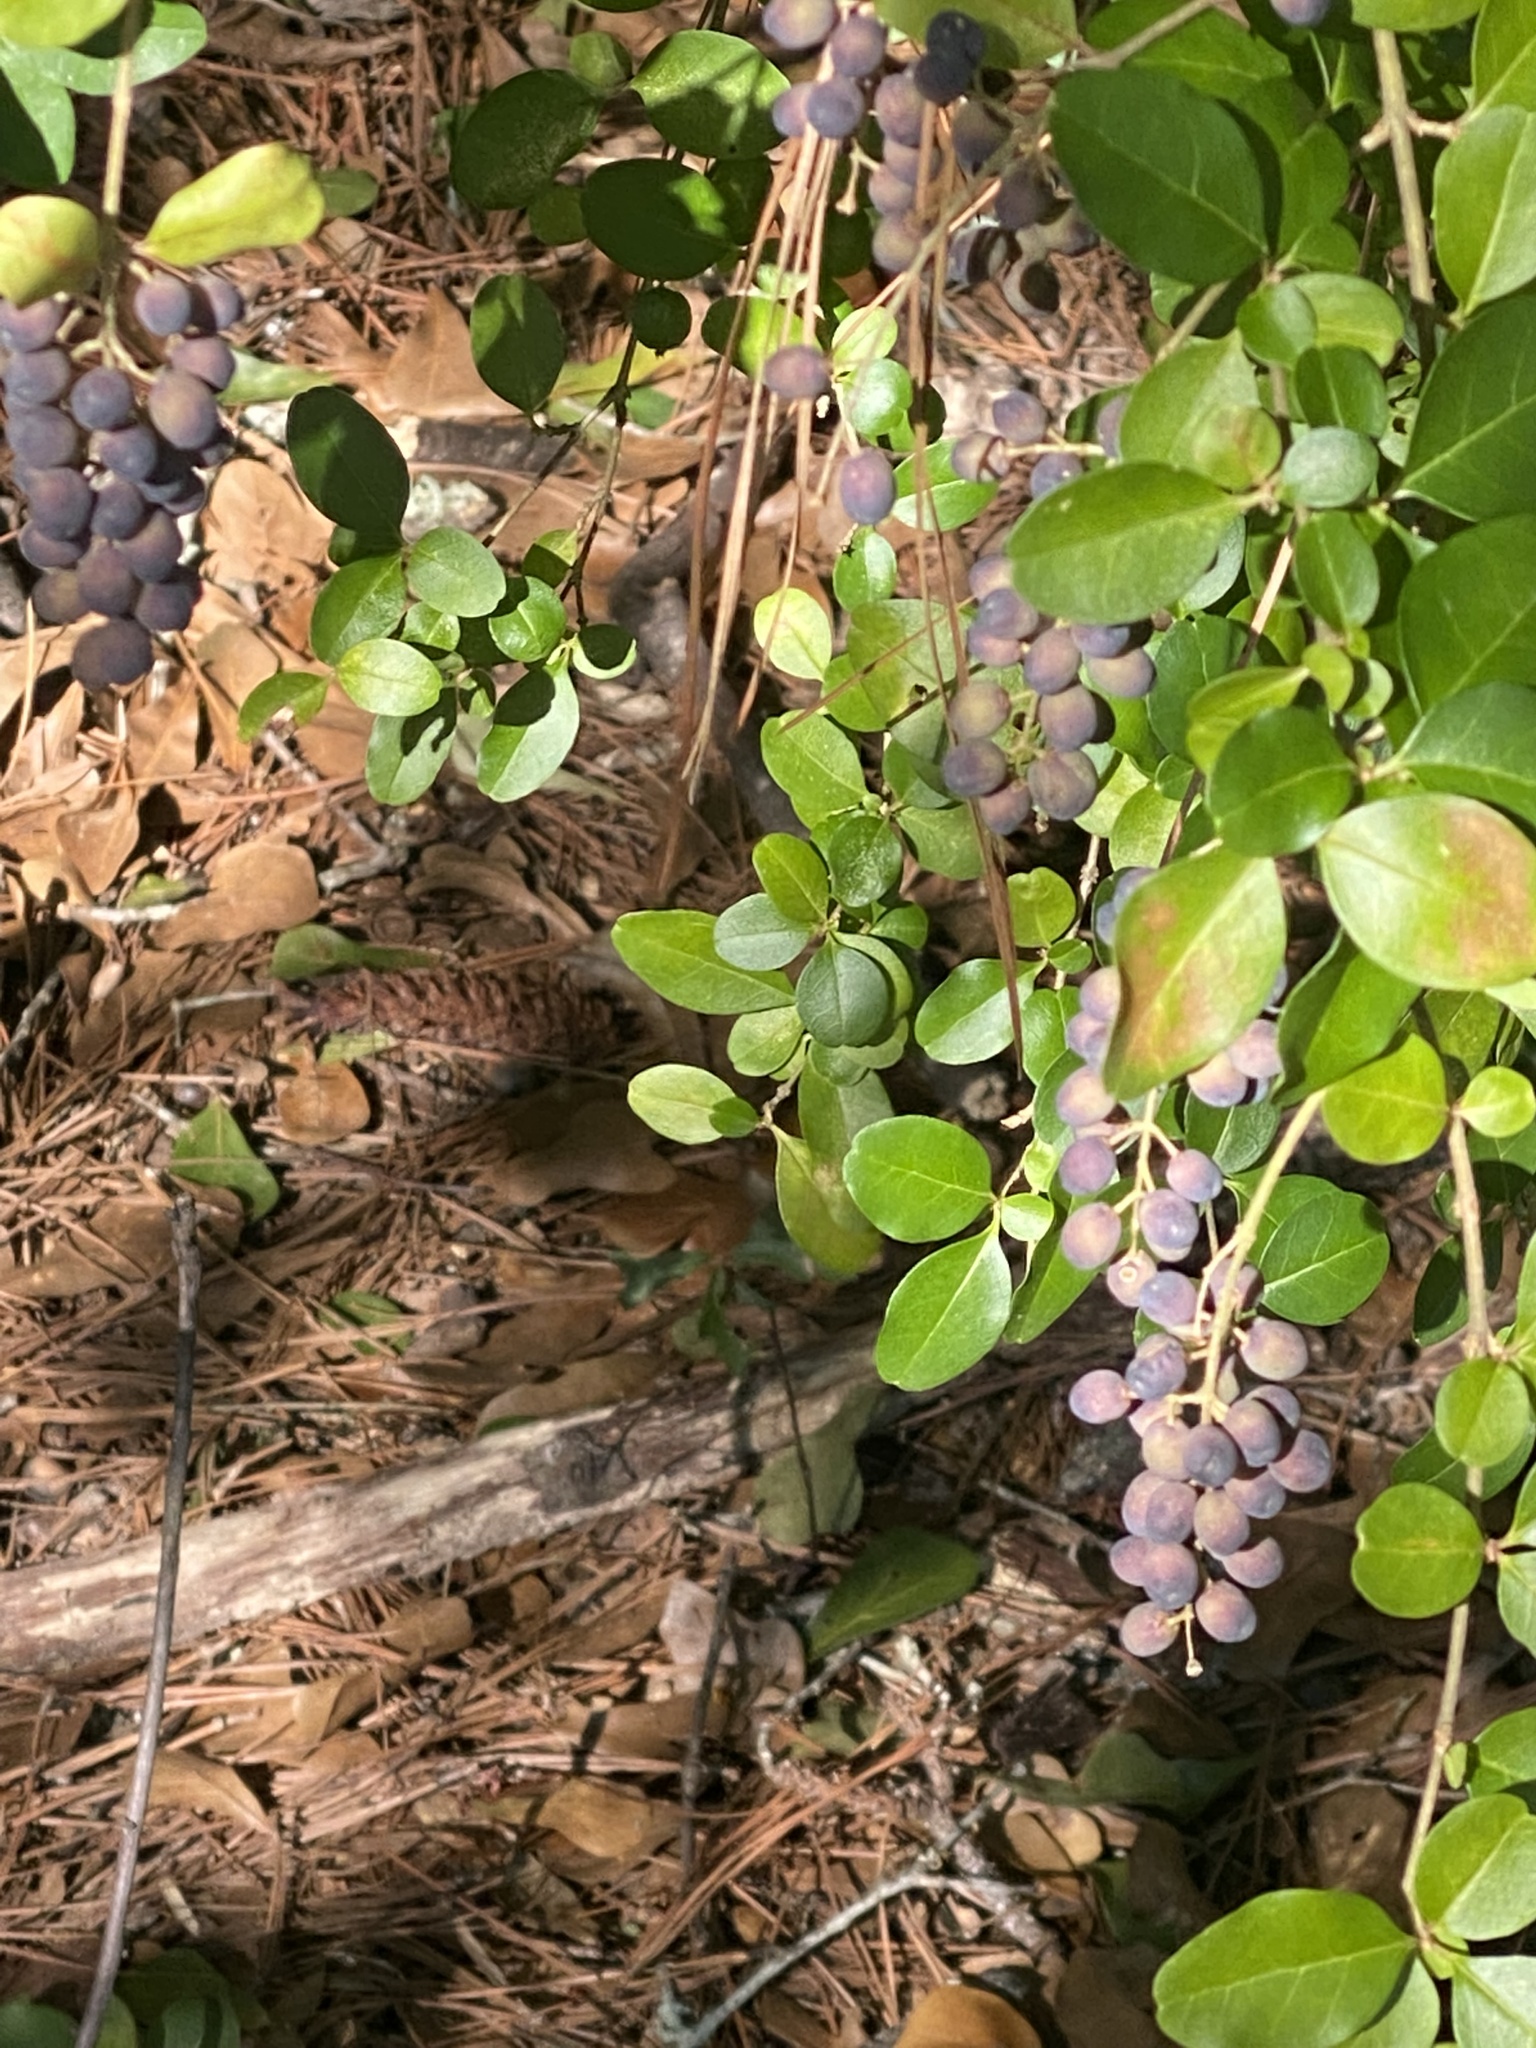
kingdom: Plantae
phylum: Tracheophyta
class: Magnoliopsida
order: Lamiales
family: Oleaceae
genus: Ligustrum
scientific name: Ligustrum sinense
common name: Chinese privet
